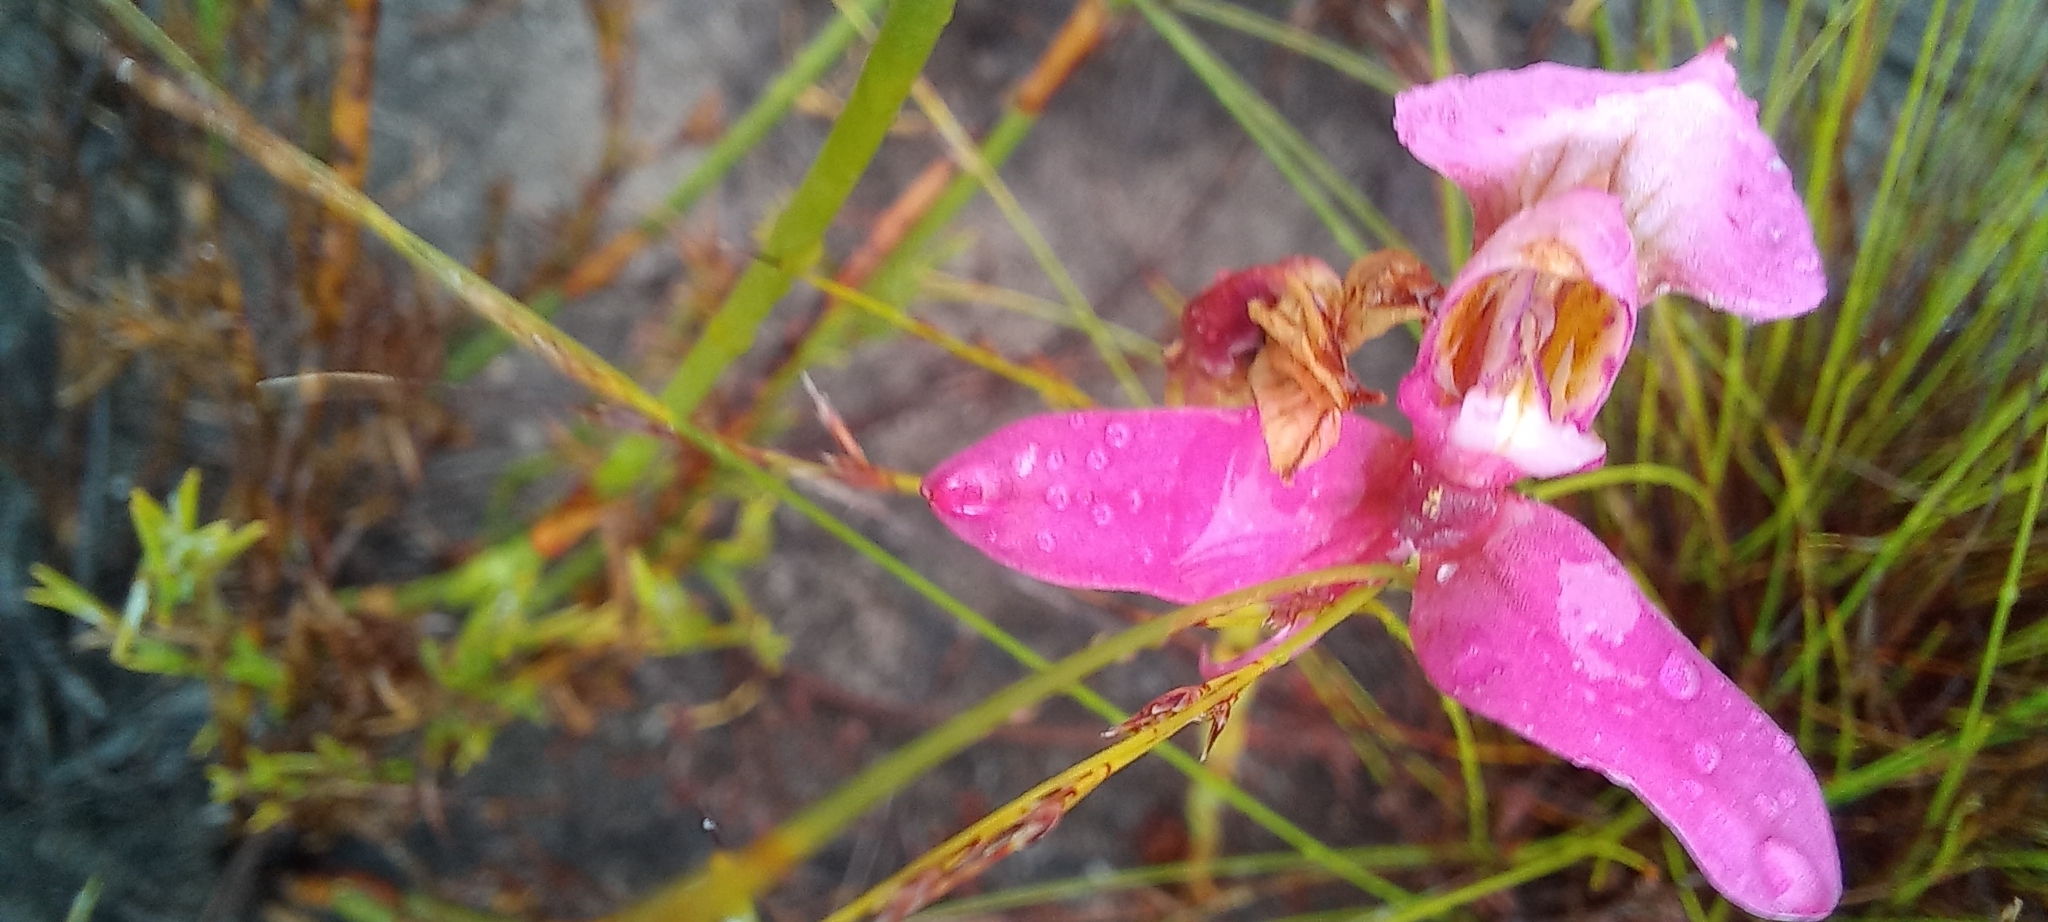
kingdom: Plantae
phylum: Tracheophyta
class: Liliopsida
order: Asparagales
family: Orchidaceae
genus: Disa
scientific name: Disa filicornis
